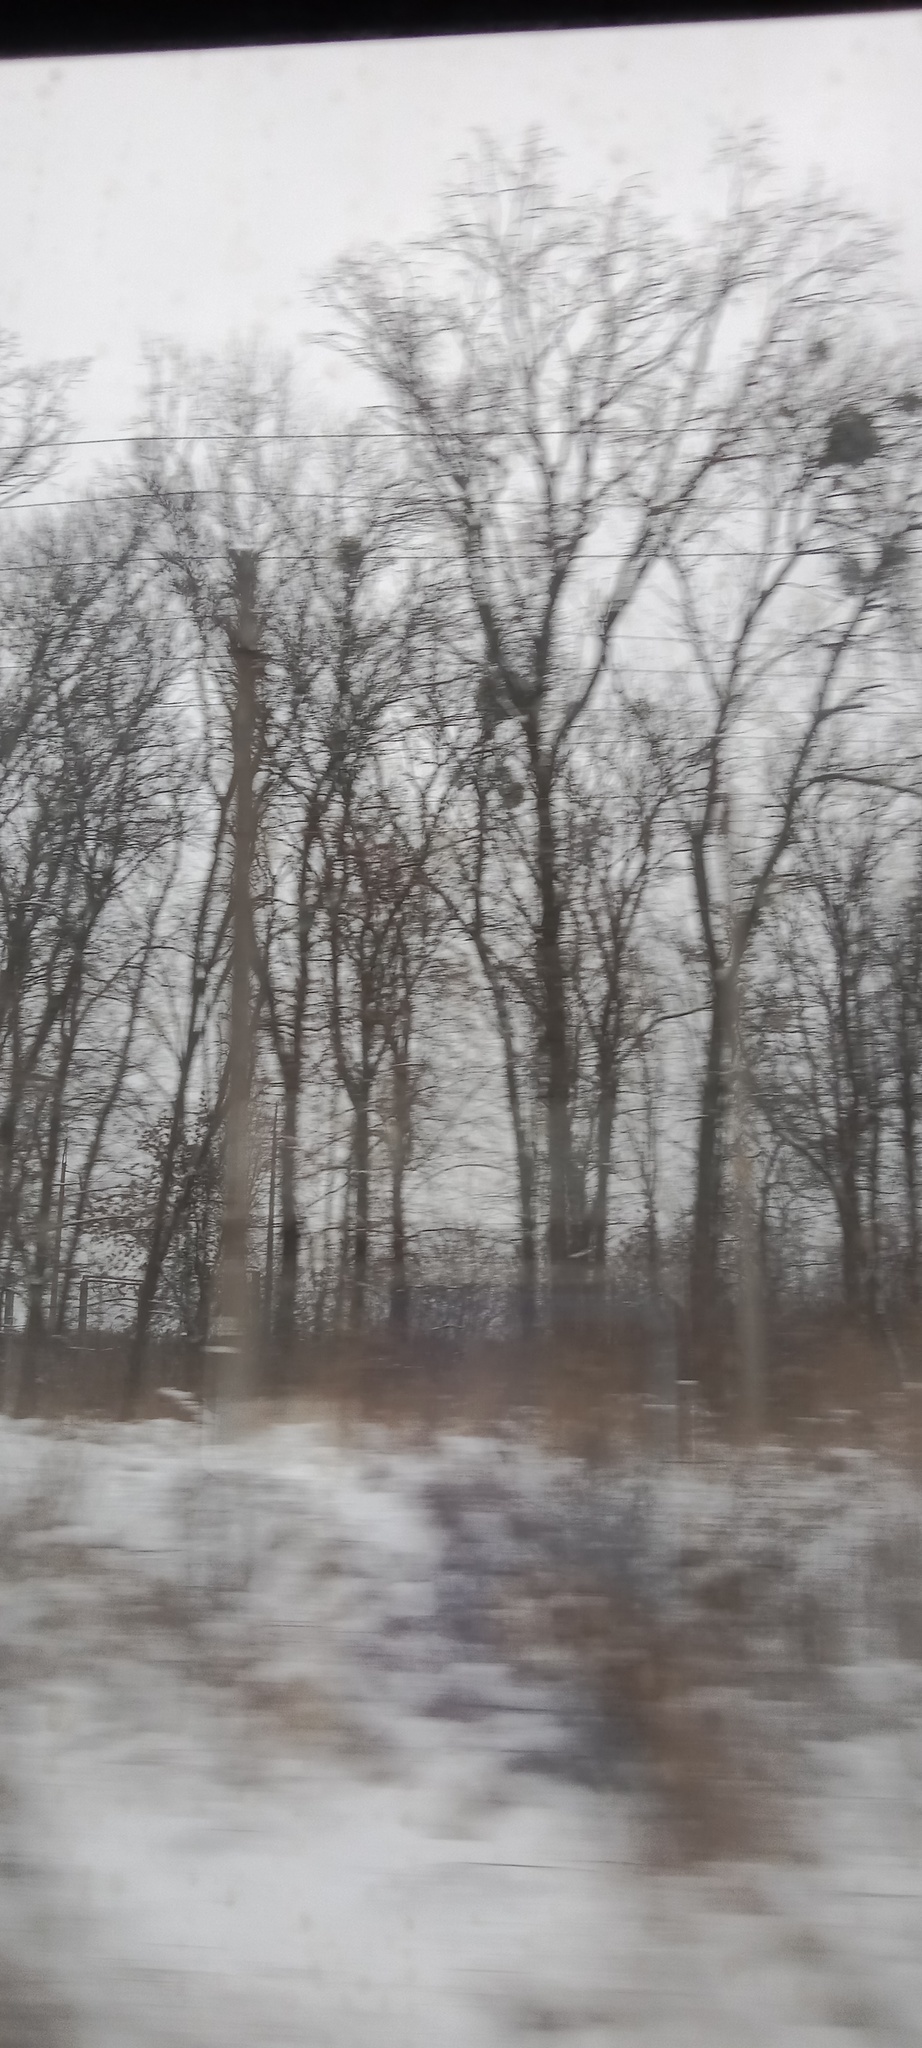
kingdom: Plantae
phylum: Tracheophyta
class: Magnoliopsida
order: Santalales
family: Viscaceae
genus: Viscum
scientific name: Viscum album
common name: Mistletoe
